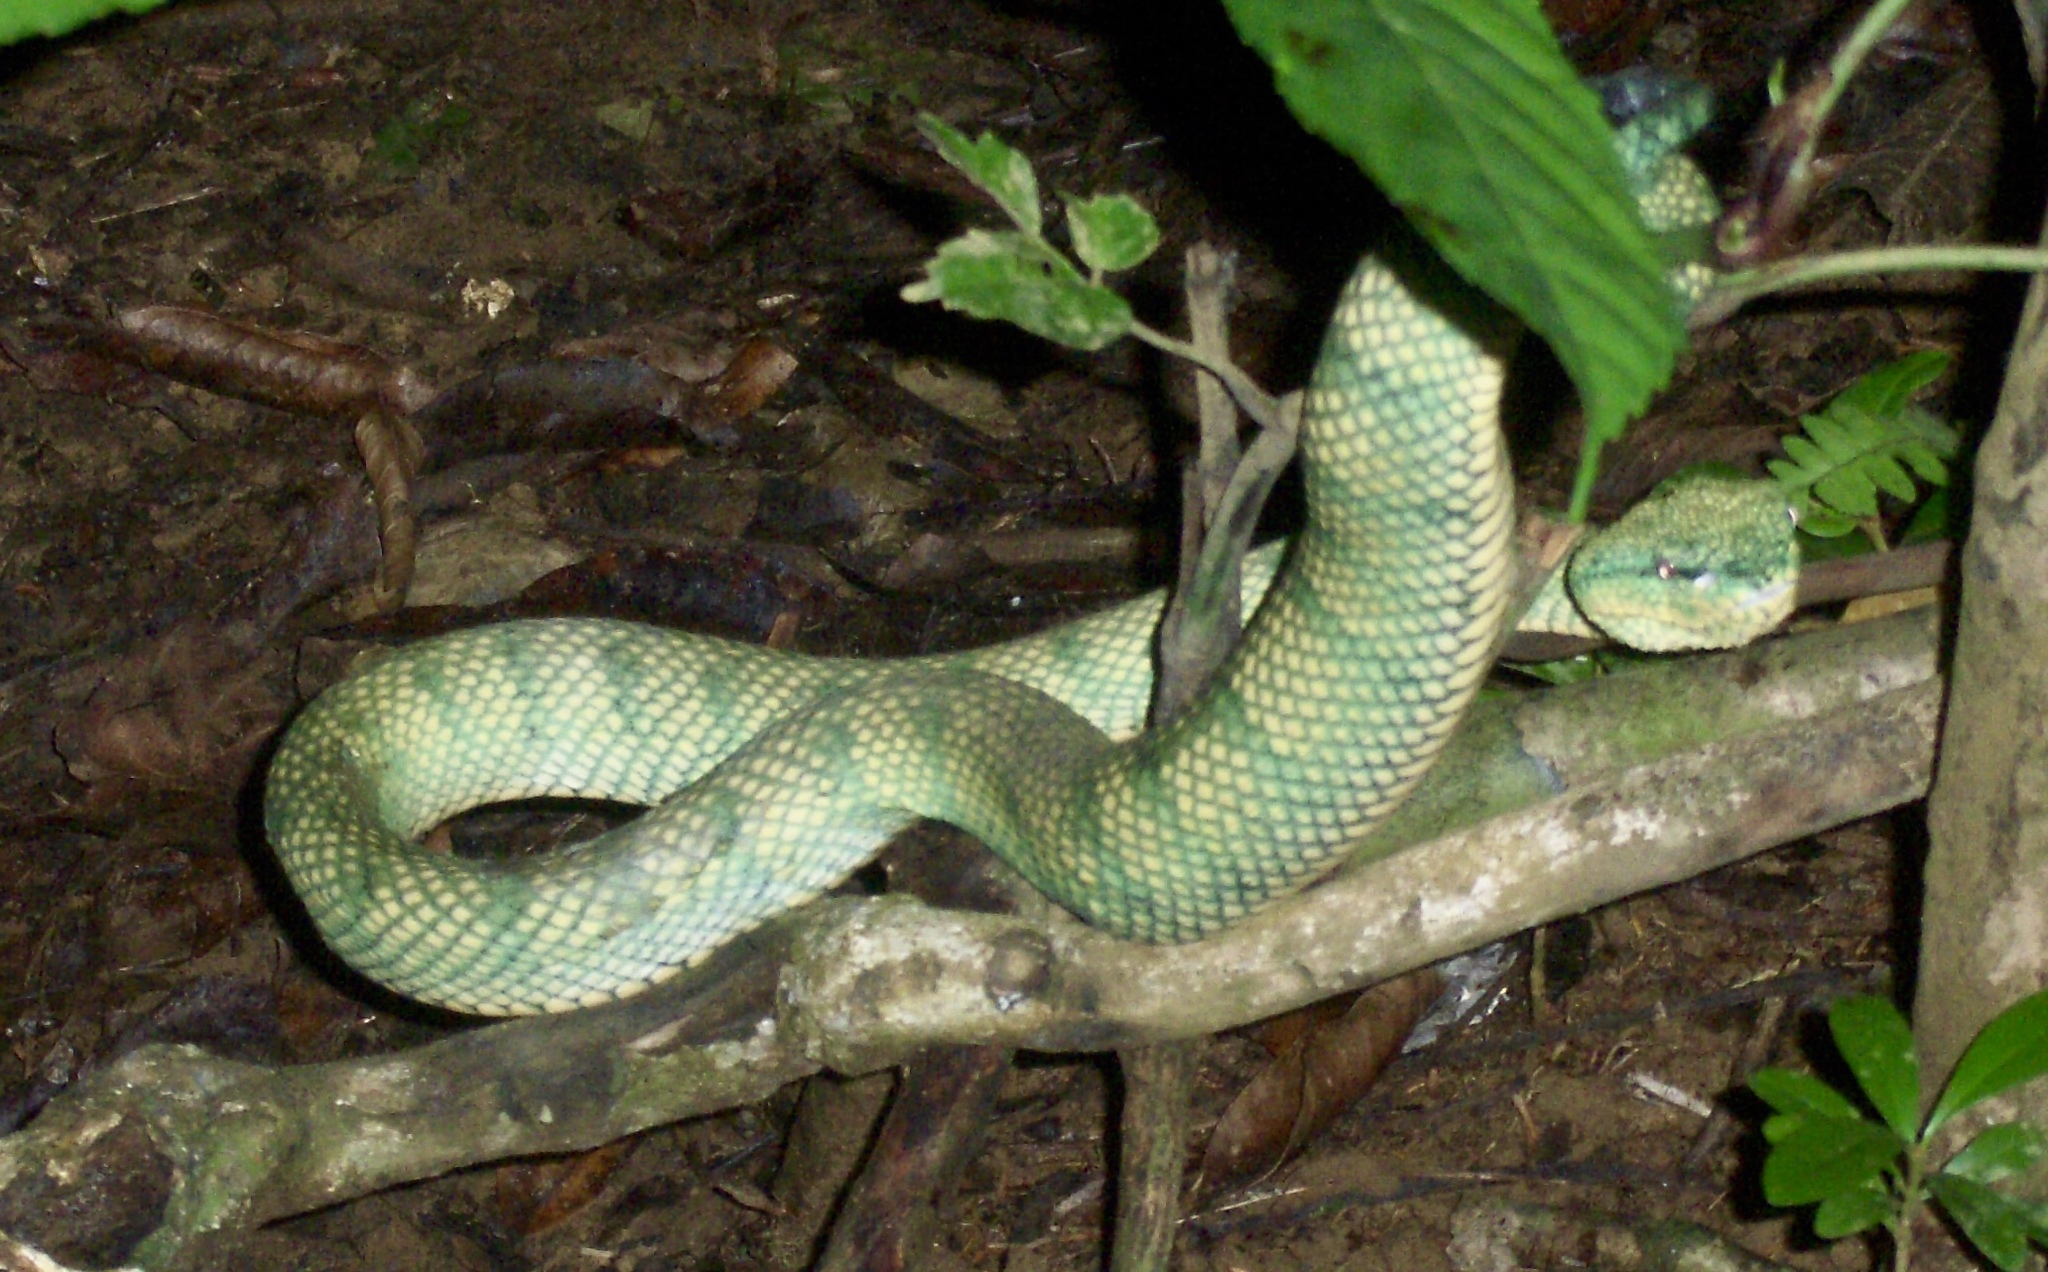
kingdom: Animalia
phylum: Chordata
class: Squamata
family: Viperidae
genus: Tropidolaemus
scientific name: Tropidolaemus subannulatus
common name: North philippine temple pitviper
